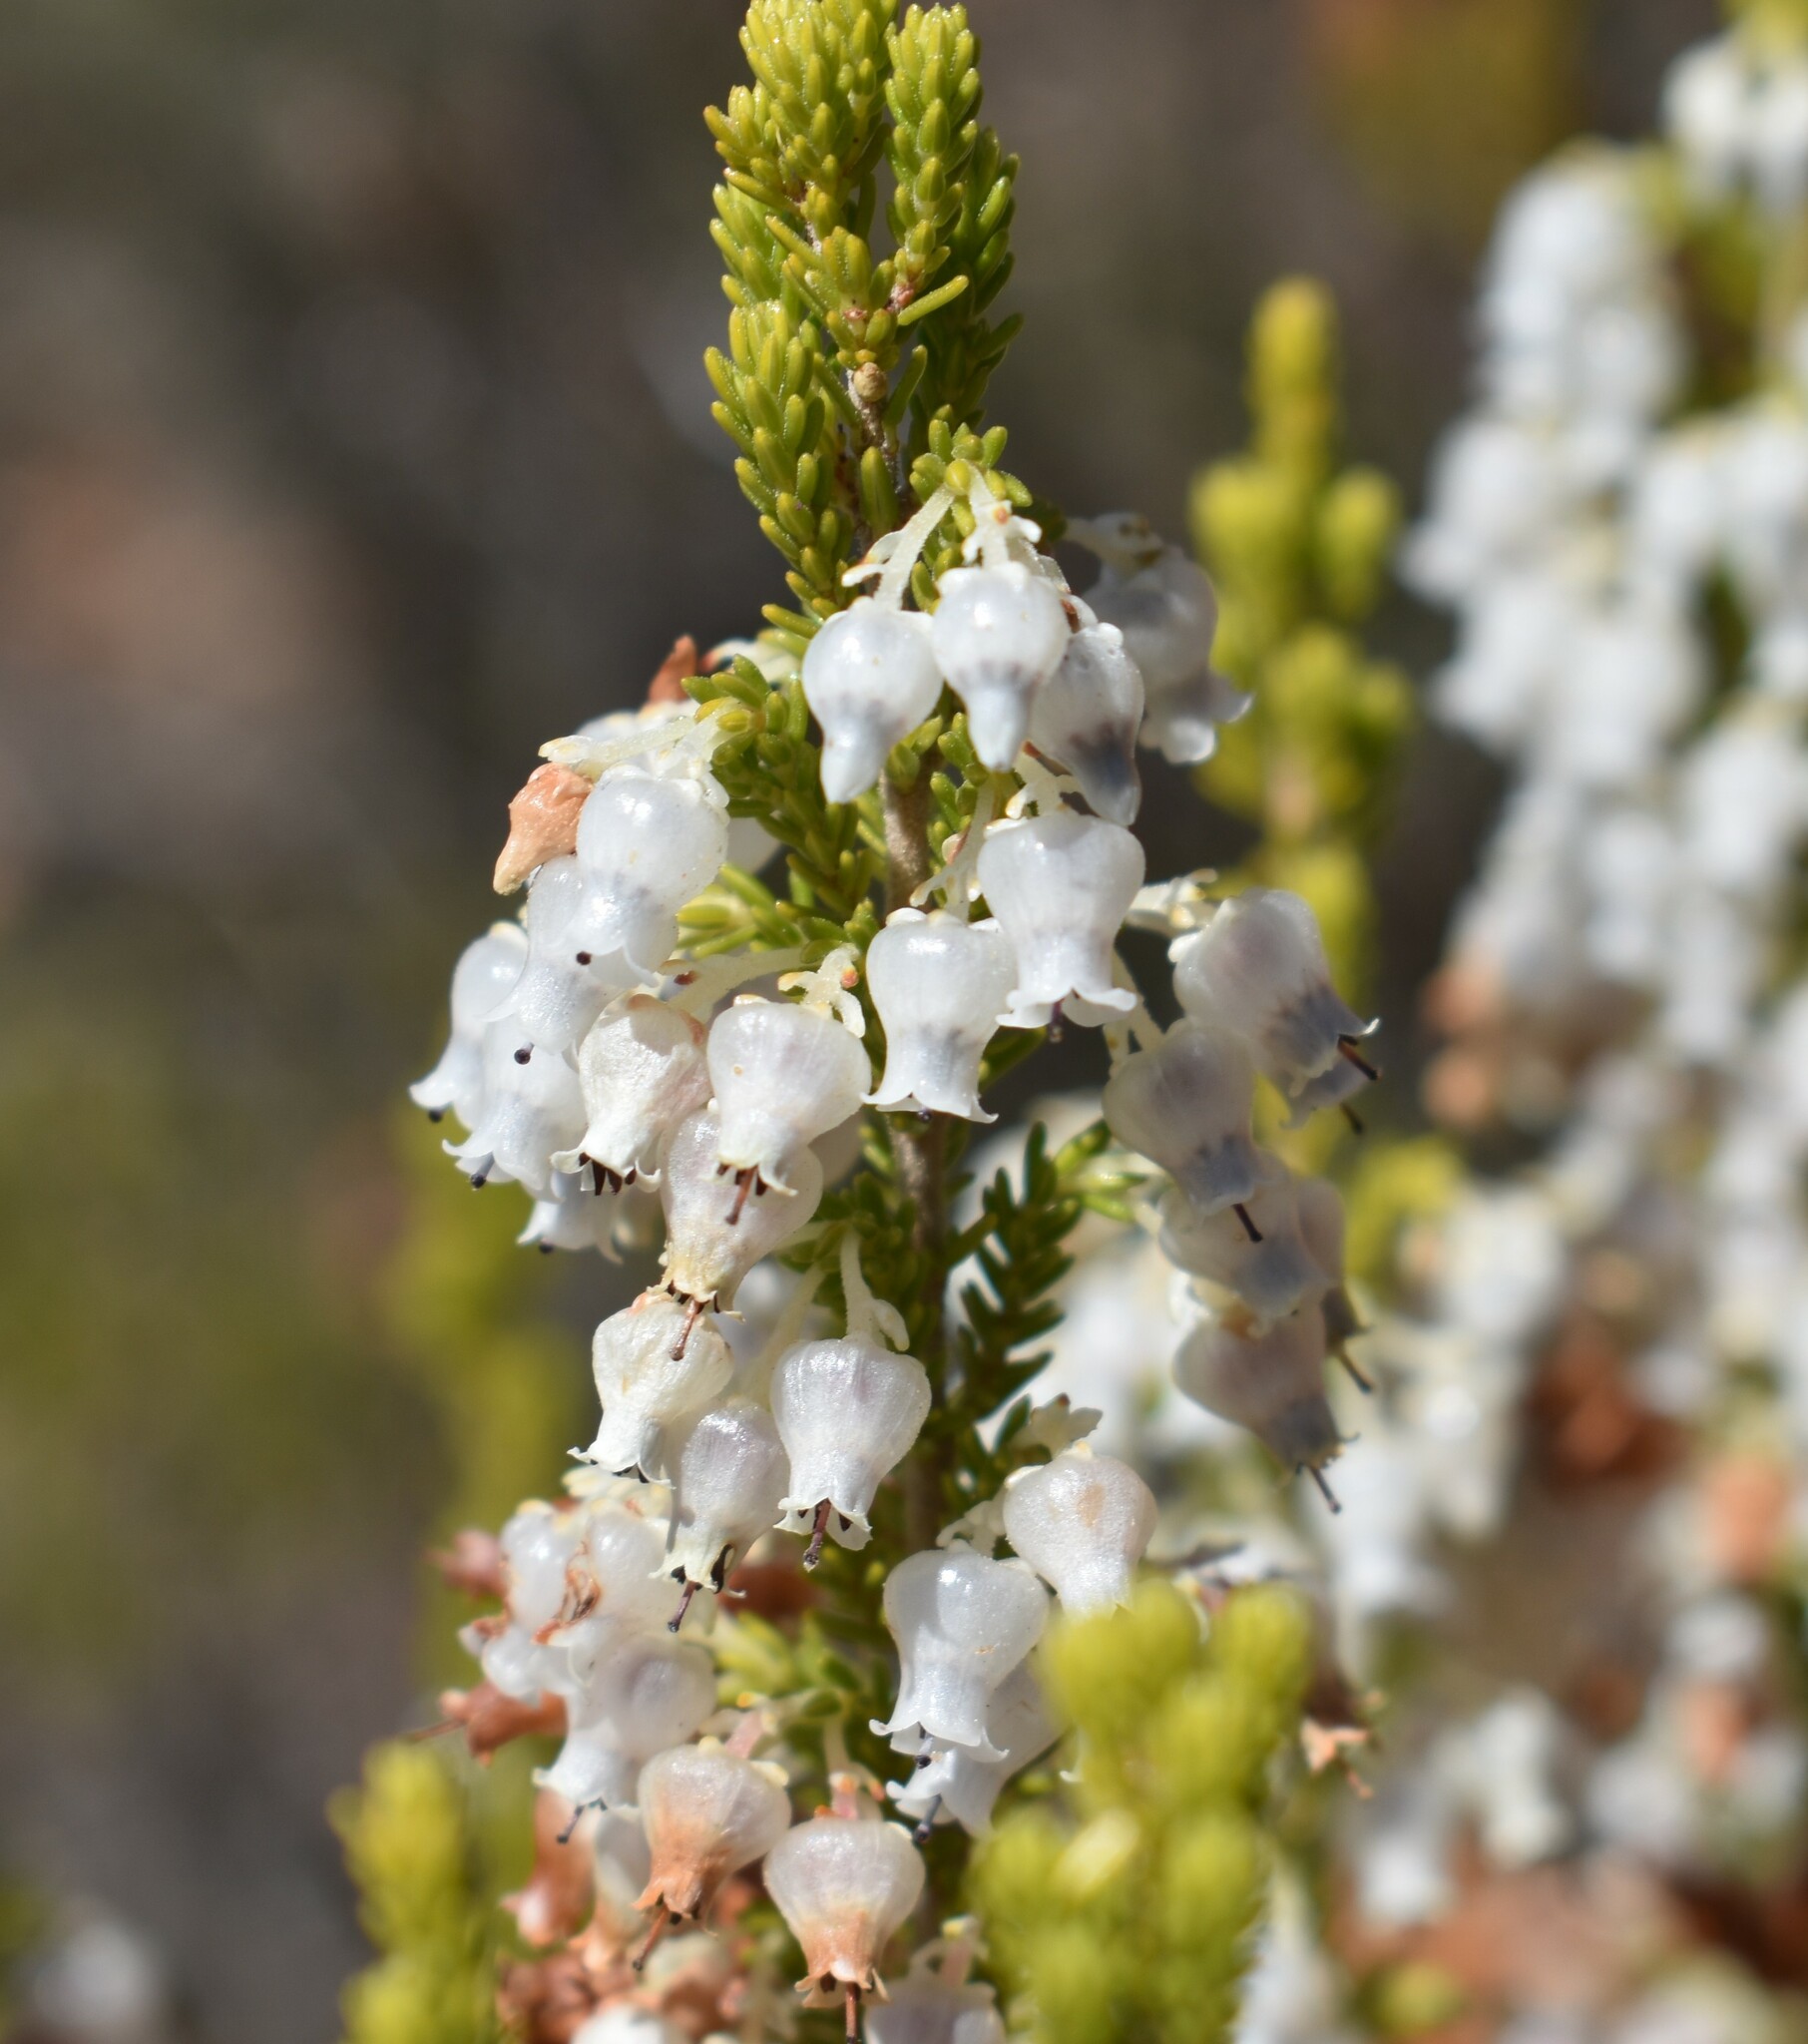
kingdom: Plantae
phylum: Tracheophyta
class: Magnoliopsida
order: Ericales
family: Ericaceae
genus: Erica
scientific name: Erica glomiflora
